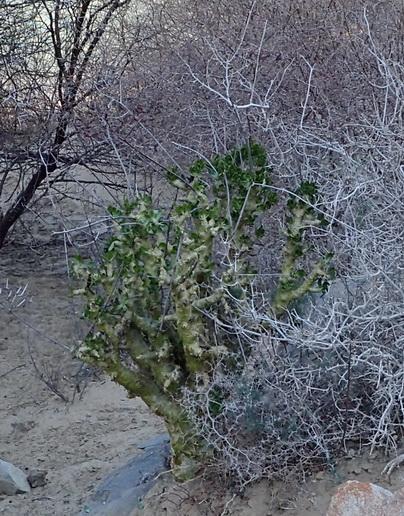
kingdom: Plantae
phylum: Tracheophyta
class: Magnoliopsida
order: Saxifragales
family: Crassulaceae
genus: Tylecodon
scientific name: Tylecodon paniculatus
